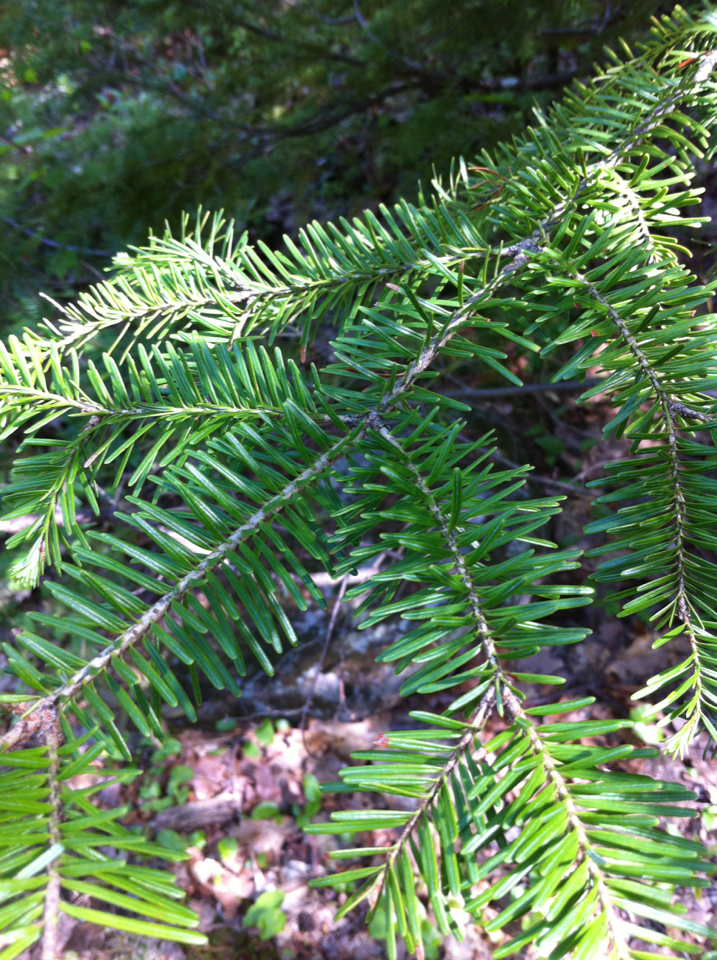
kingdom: Plantae
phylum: Tracheophyta
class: Pinopsida
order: Pinales
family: Pinaceae
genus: Abies
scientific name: Abies balsamea
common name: Balsam fir
